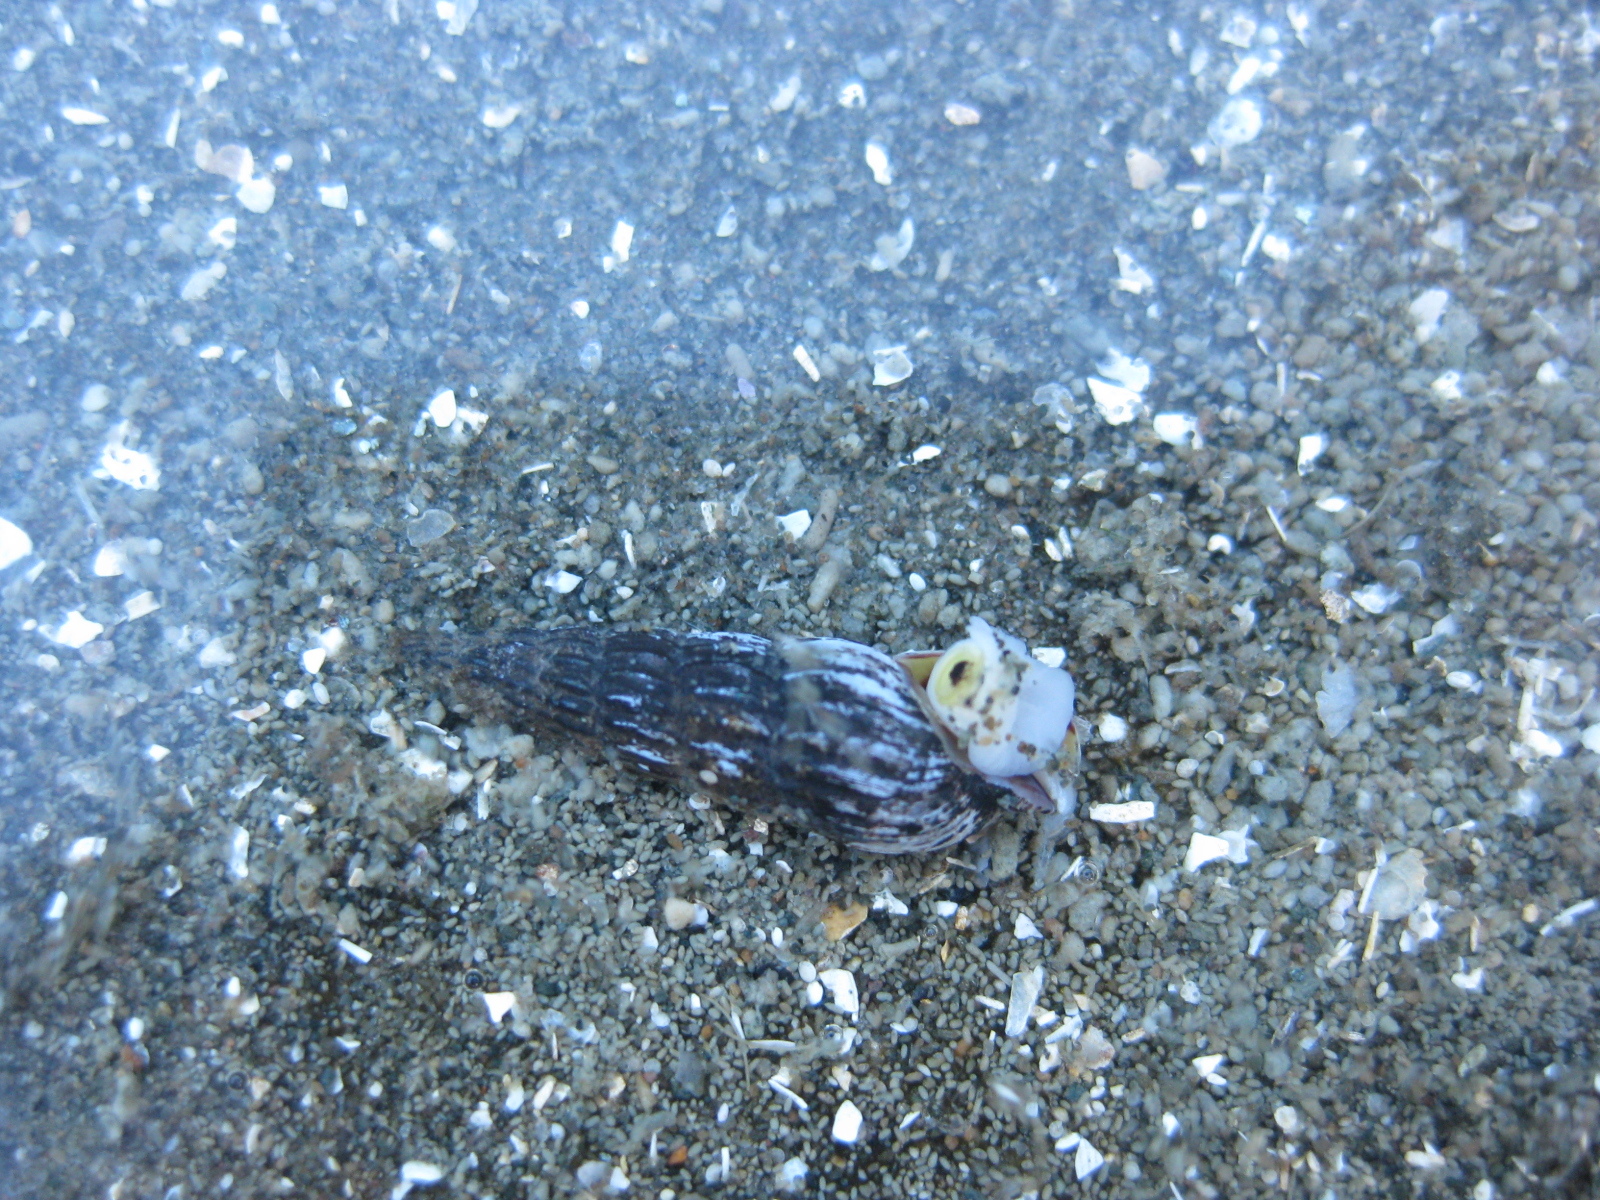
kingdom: Animalia
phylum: Mollusca
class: Gastropoda
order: Neogastropoda
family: Terebridae
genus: Duplicaria
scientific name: Duplicaria tristis
